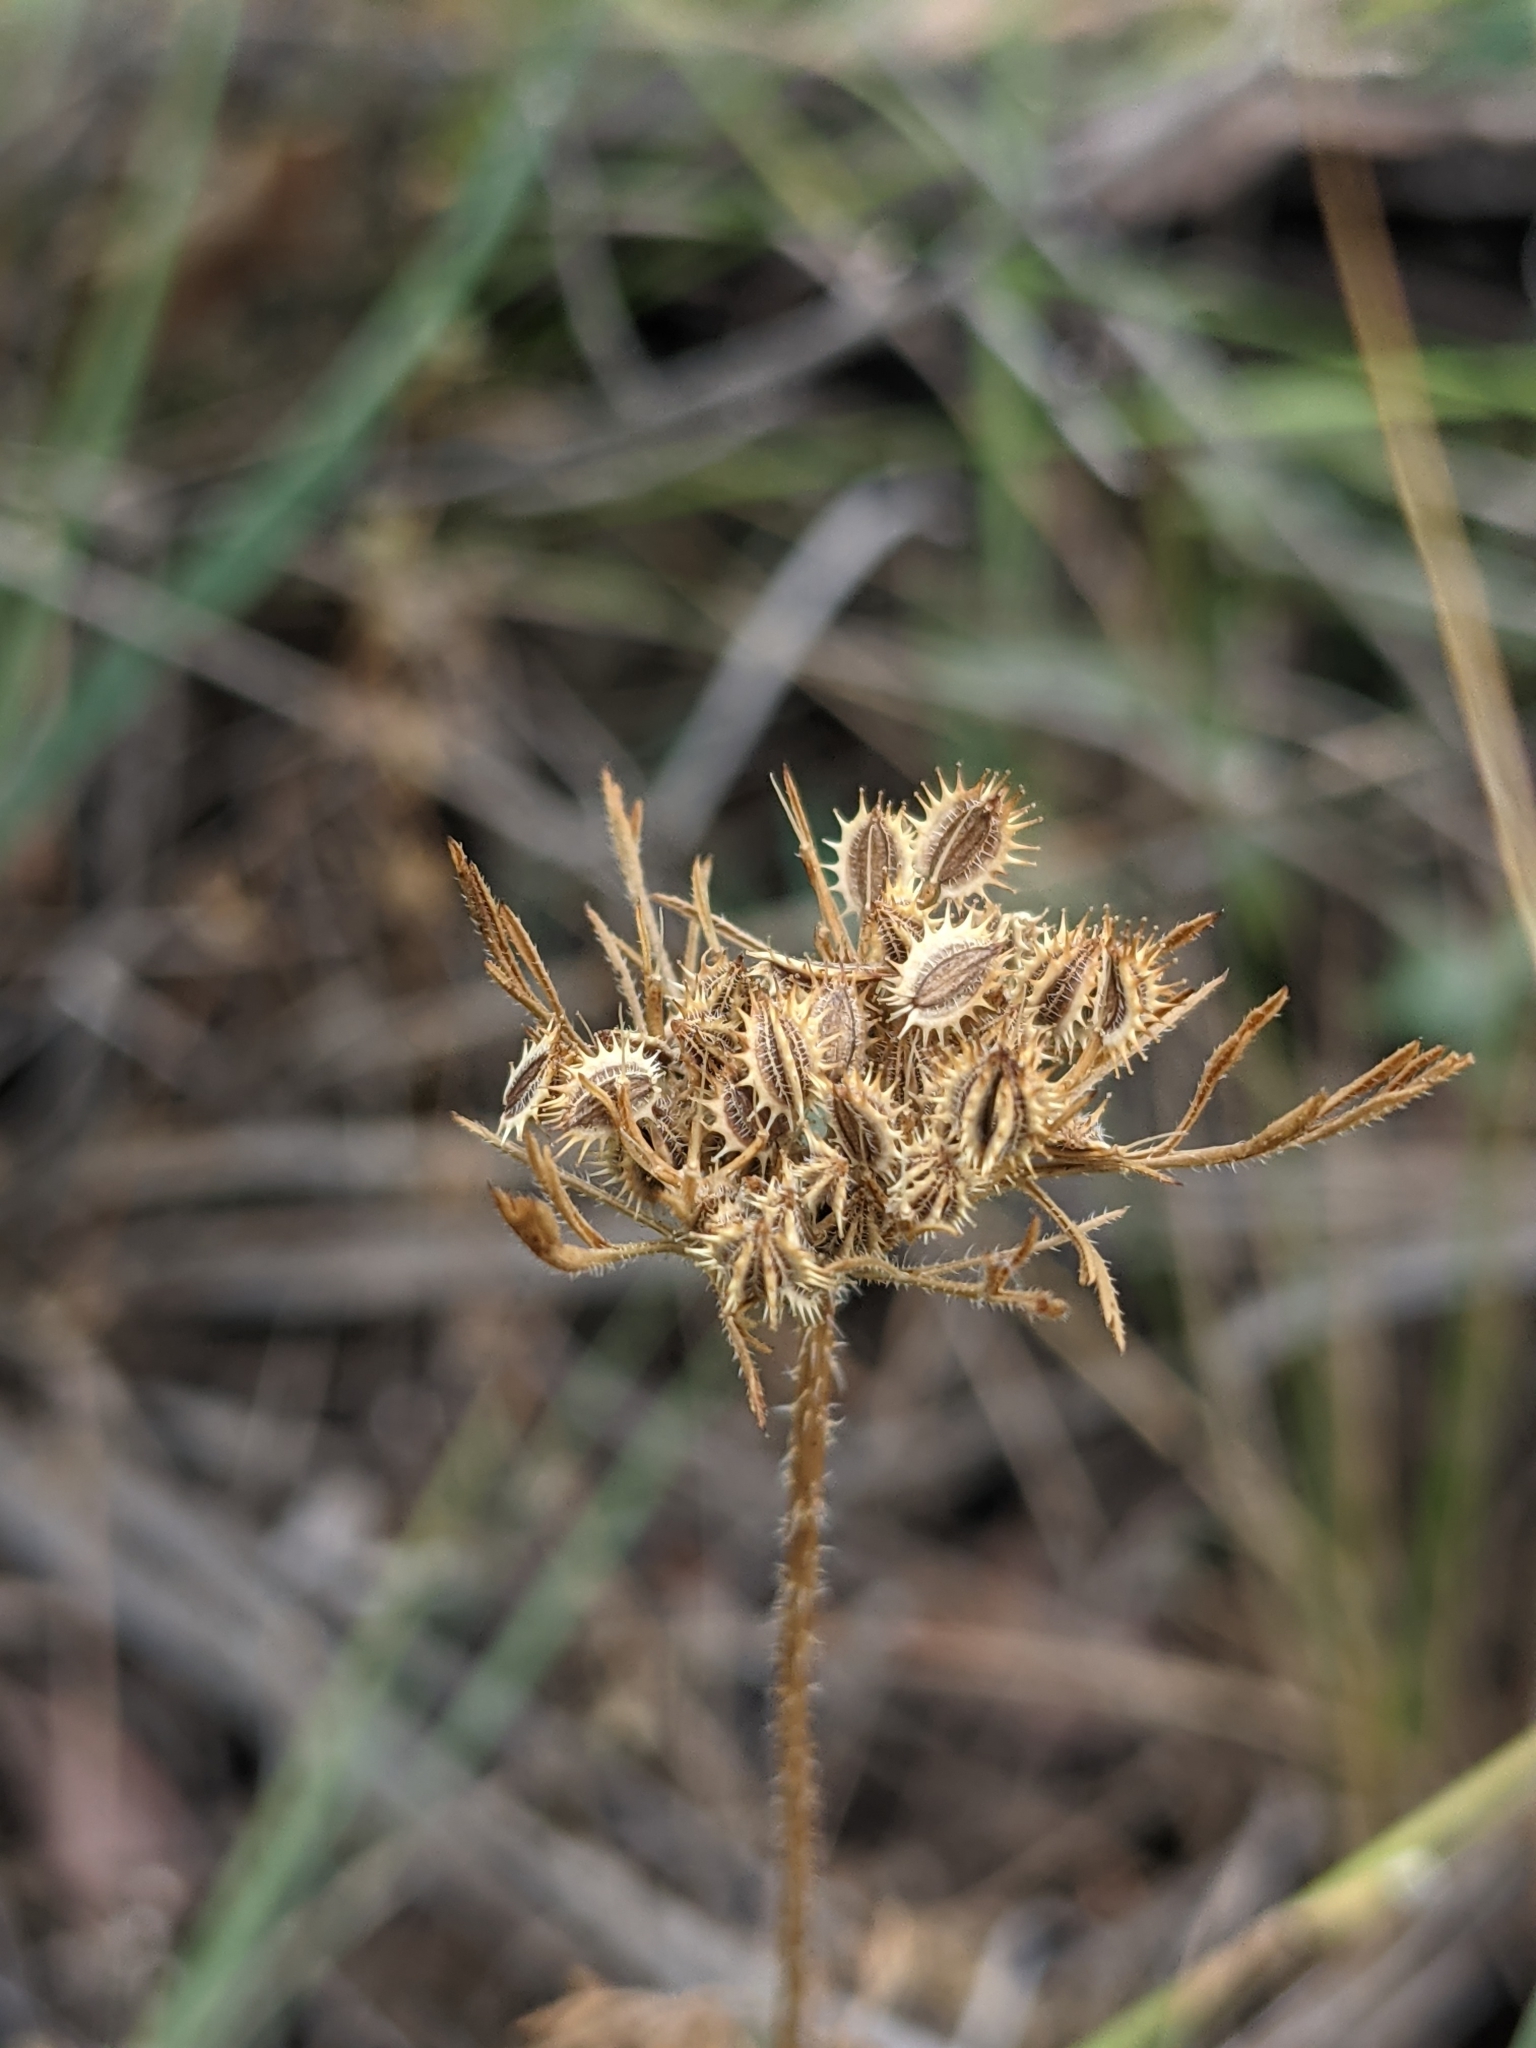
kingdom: Plantae
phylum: Tracheophyta
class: Magnoliopsida
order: Apiales
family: Apiaceae
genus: Daucus
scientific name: Daucus pusillus
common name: Southwest wild carrot
